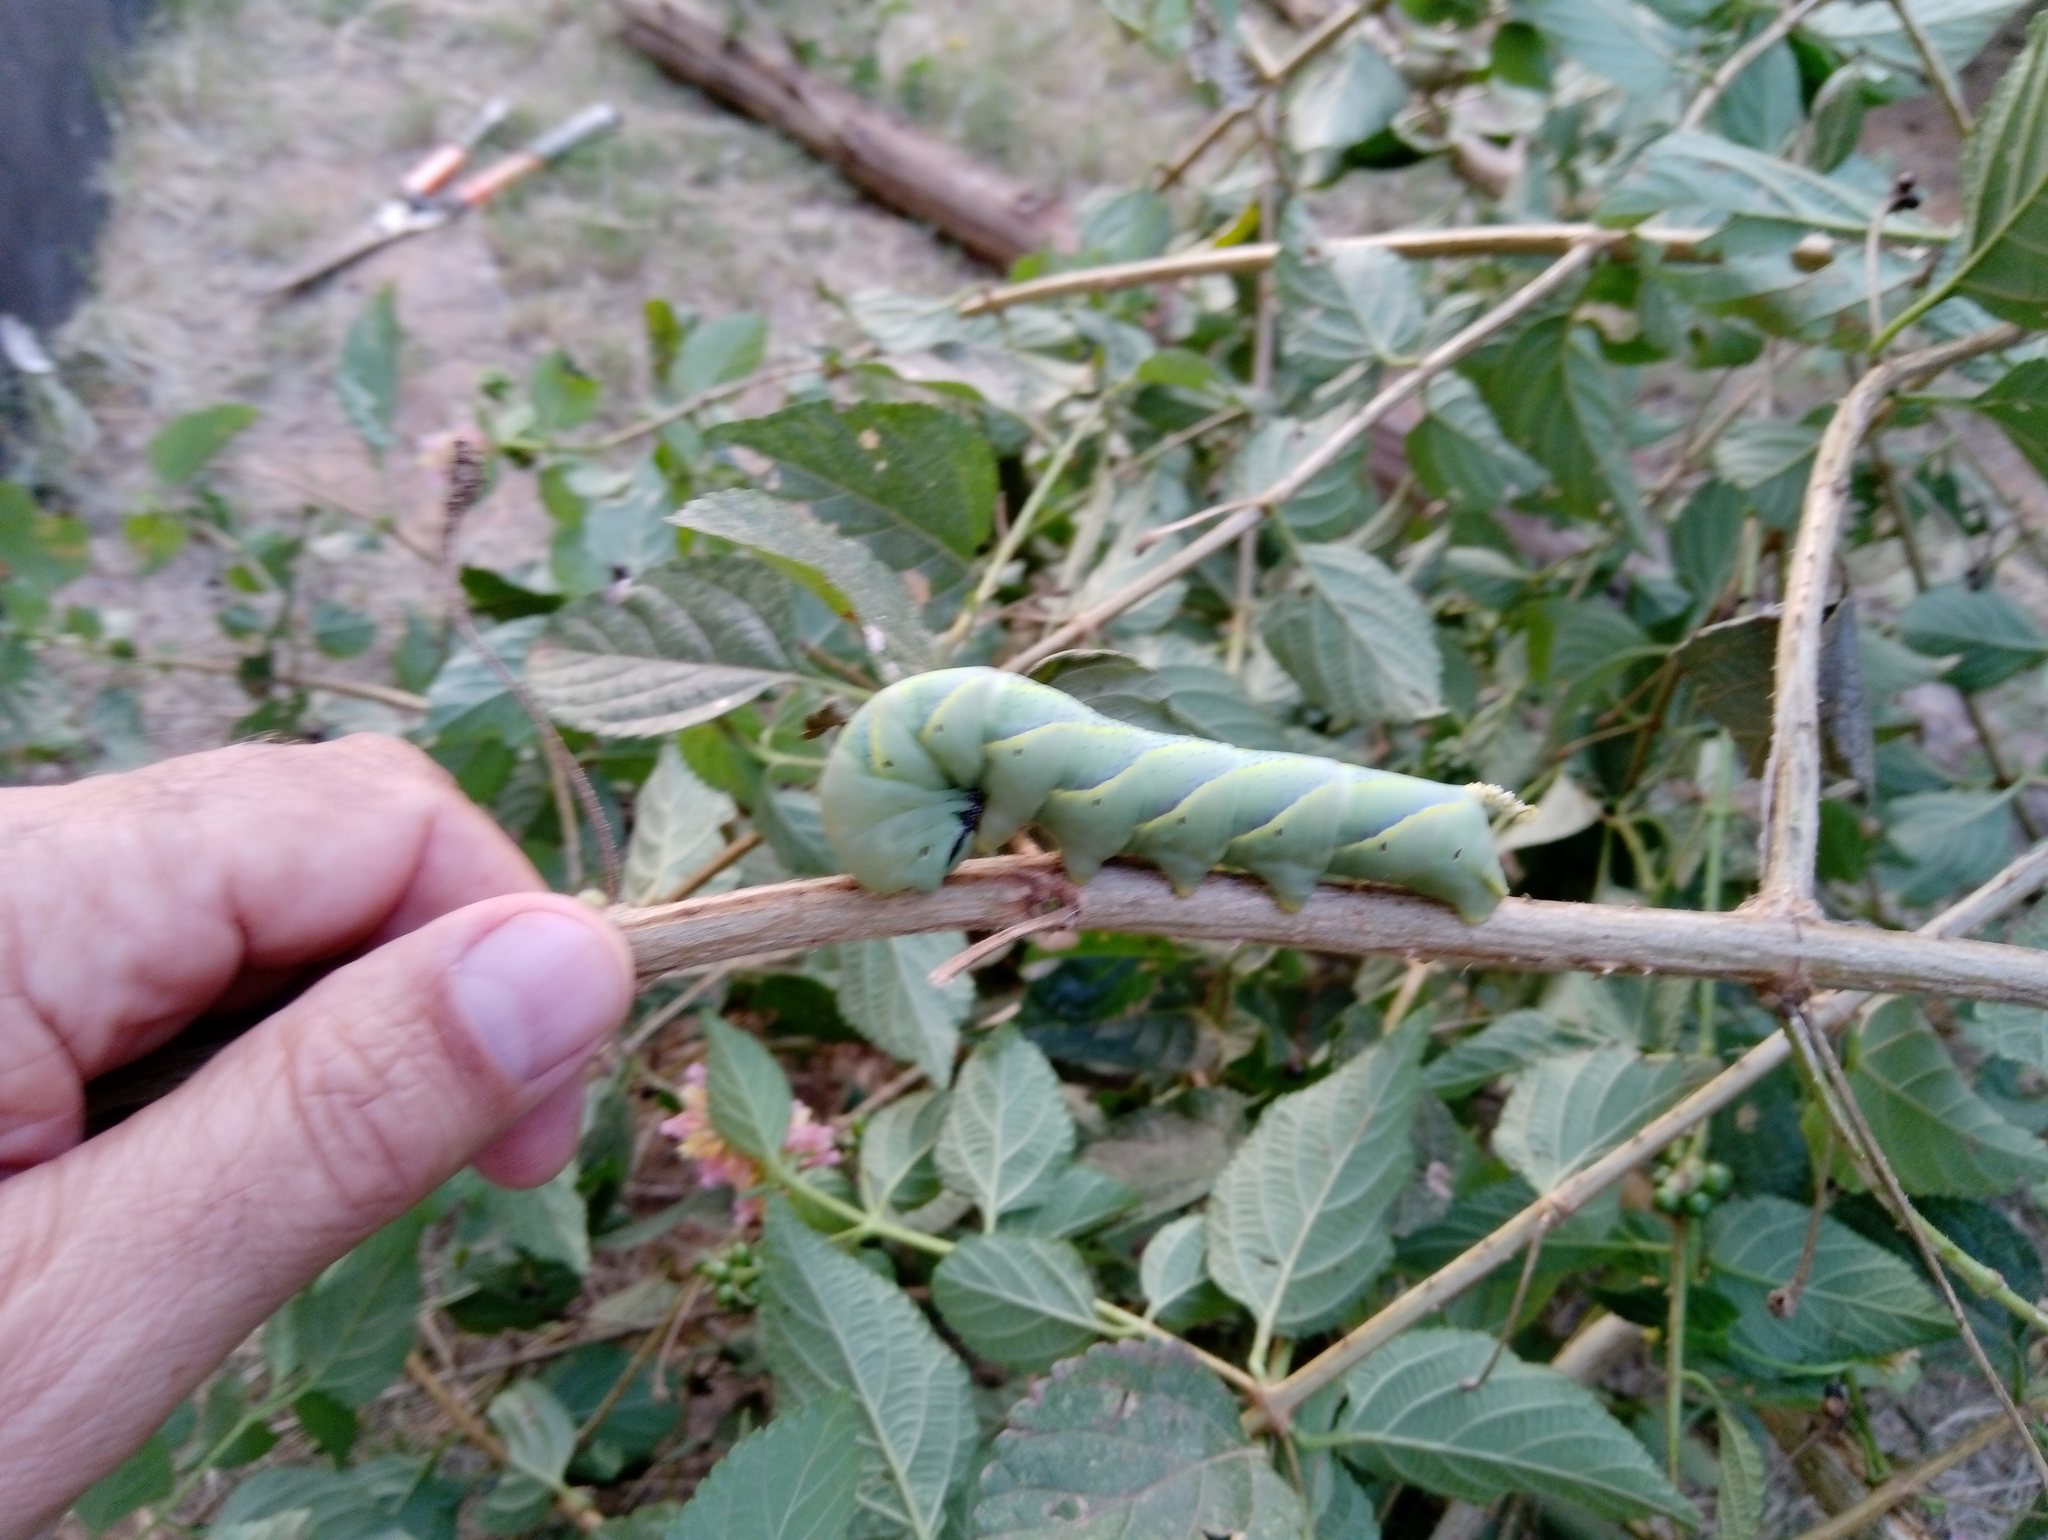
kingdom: Animalia
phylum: Arthropoda
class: Insecta
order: Lepidoptera
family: Sphingidae
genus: Acherontia
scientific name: Acherontia atropos
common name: Death's-head hawk moth
